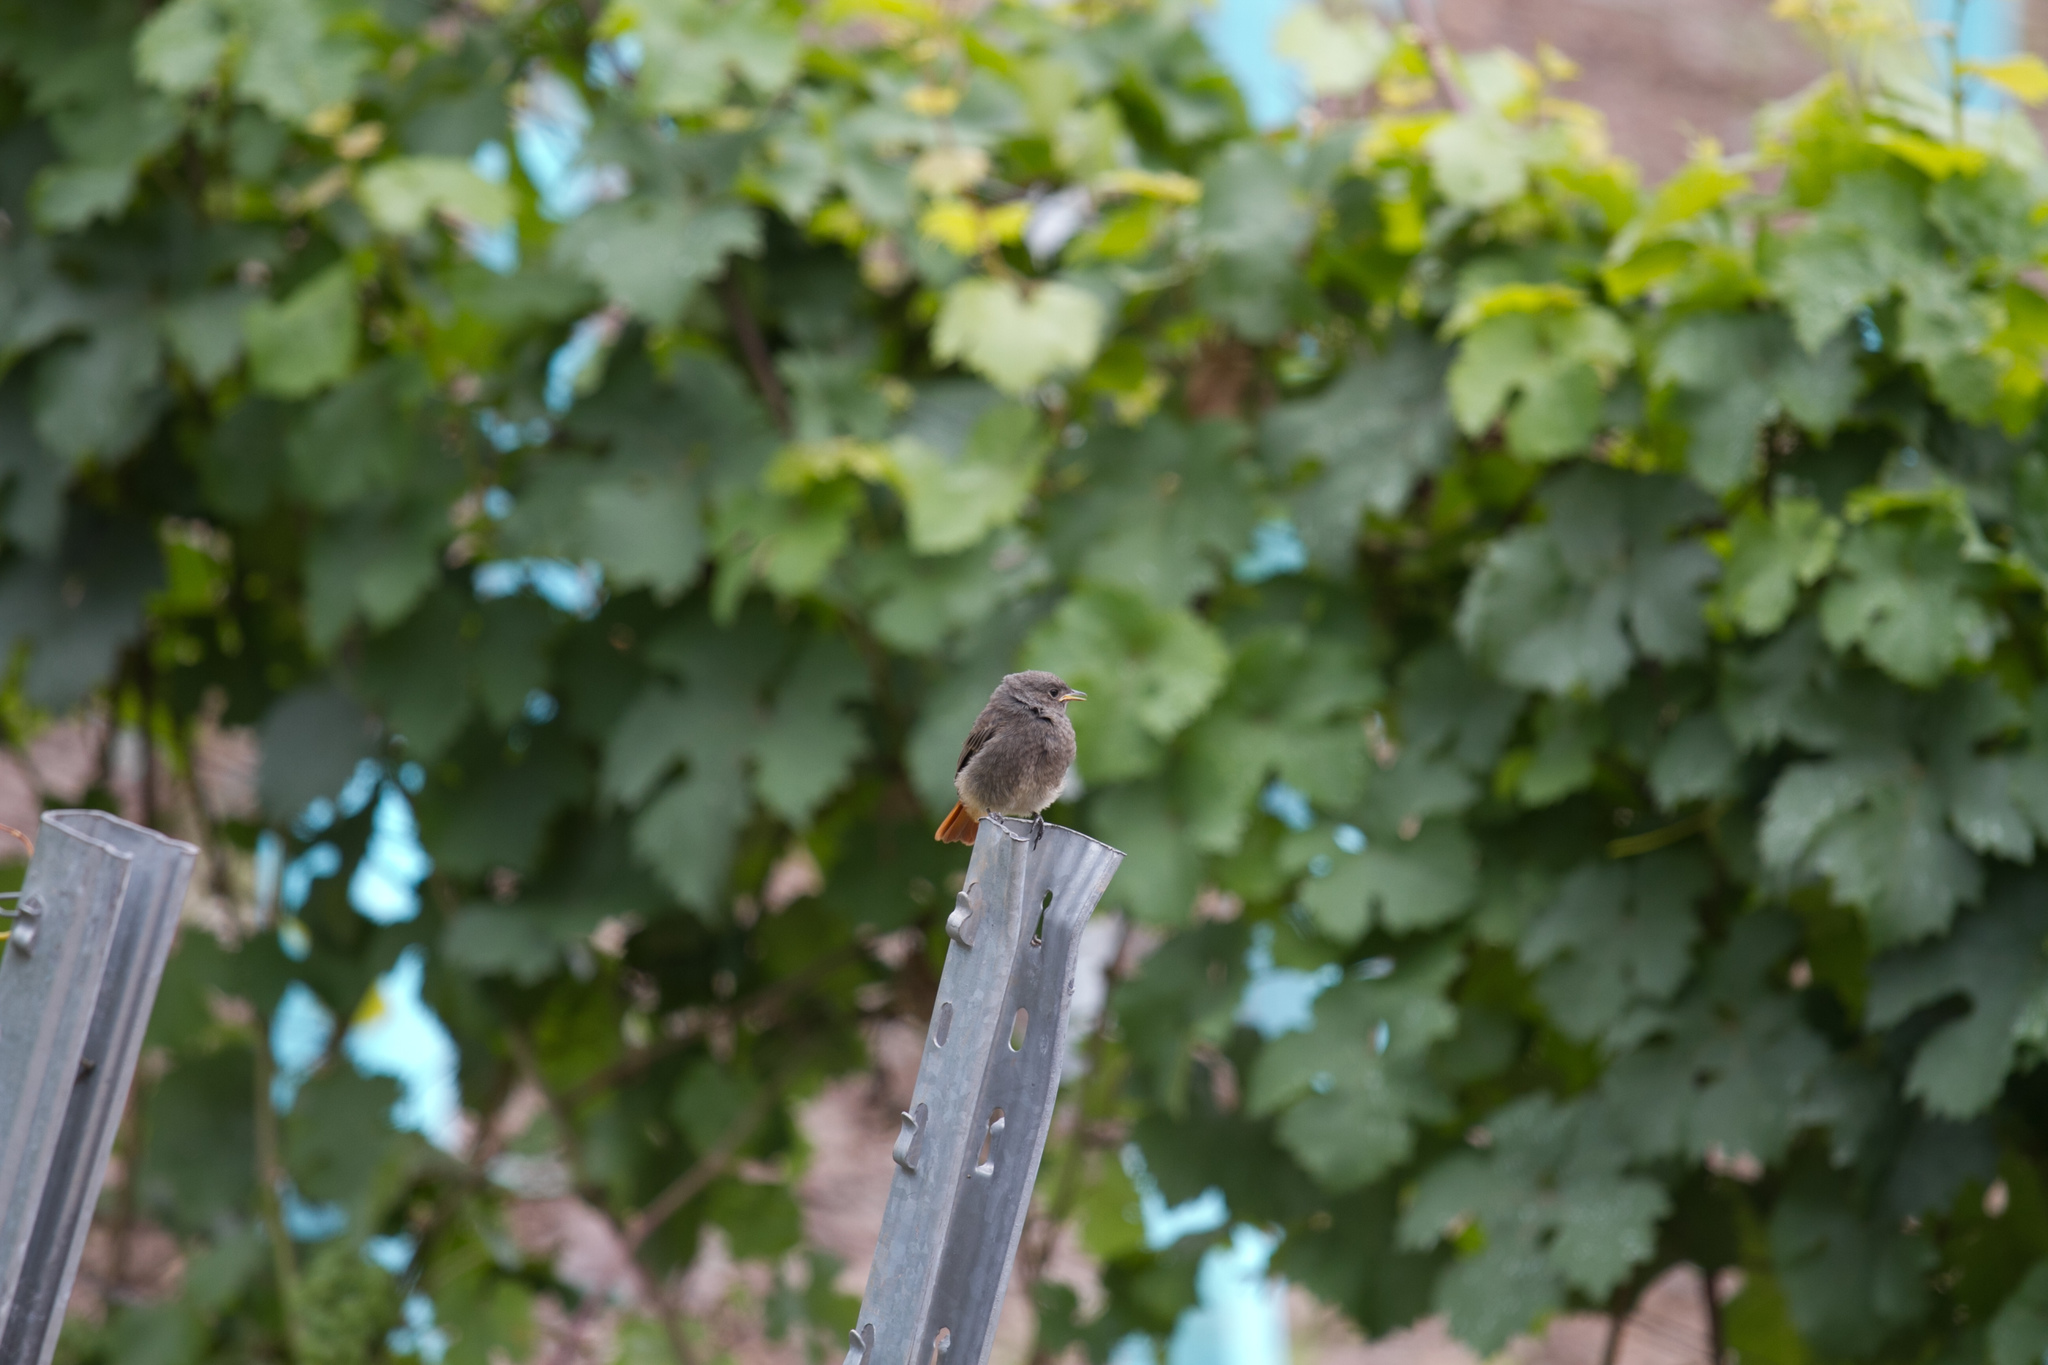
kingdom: Animalia
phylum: Chordata
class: Aves
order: Passeriformes
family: Muscicapidae
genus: Phoenicurus
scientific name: Phoenicurus ochruros
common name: Black redstart
